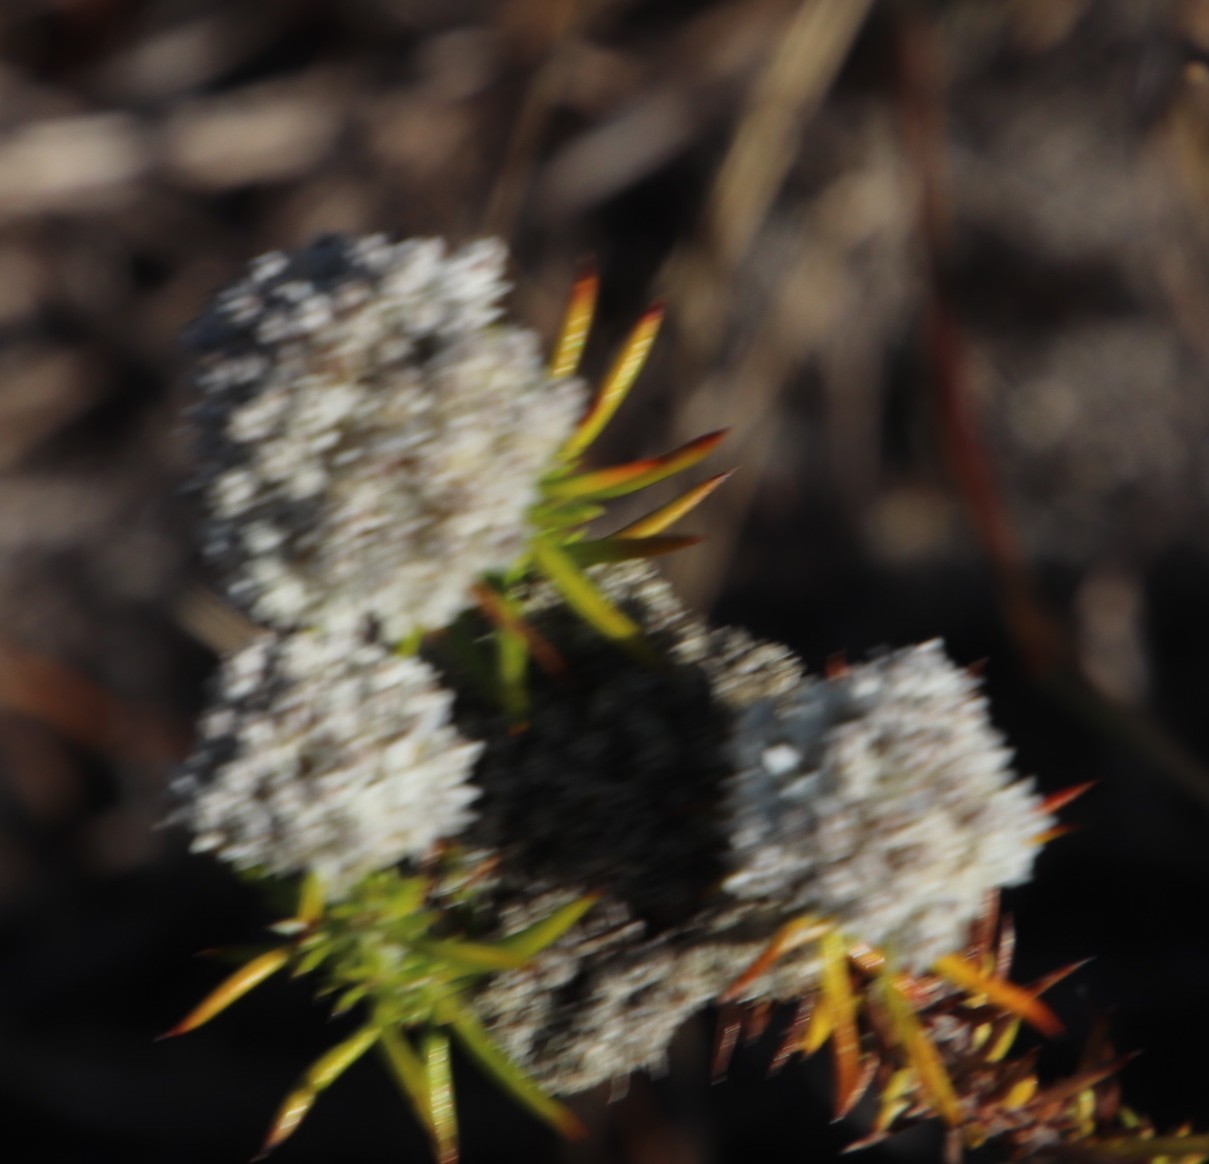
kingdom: Plantae
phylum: Tracheophyta
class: Magnoliopsida
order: Asterales
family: Asteraceae
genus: Metalasia
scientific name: Metalasia pulchella
